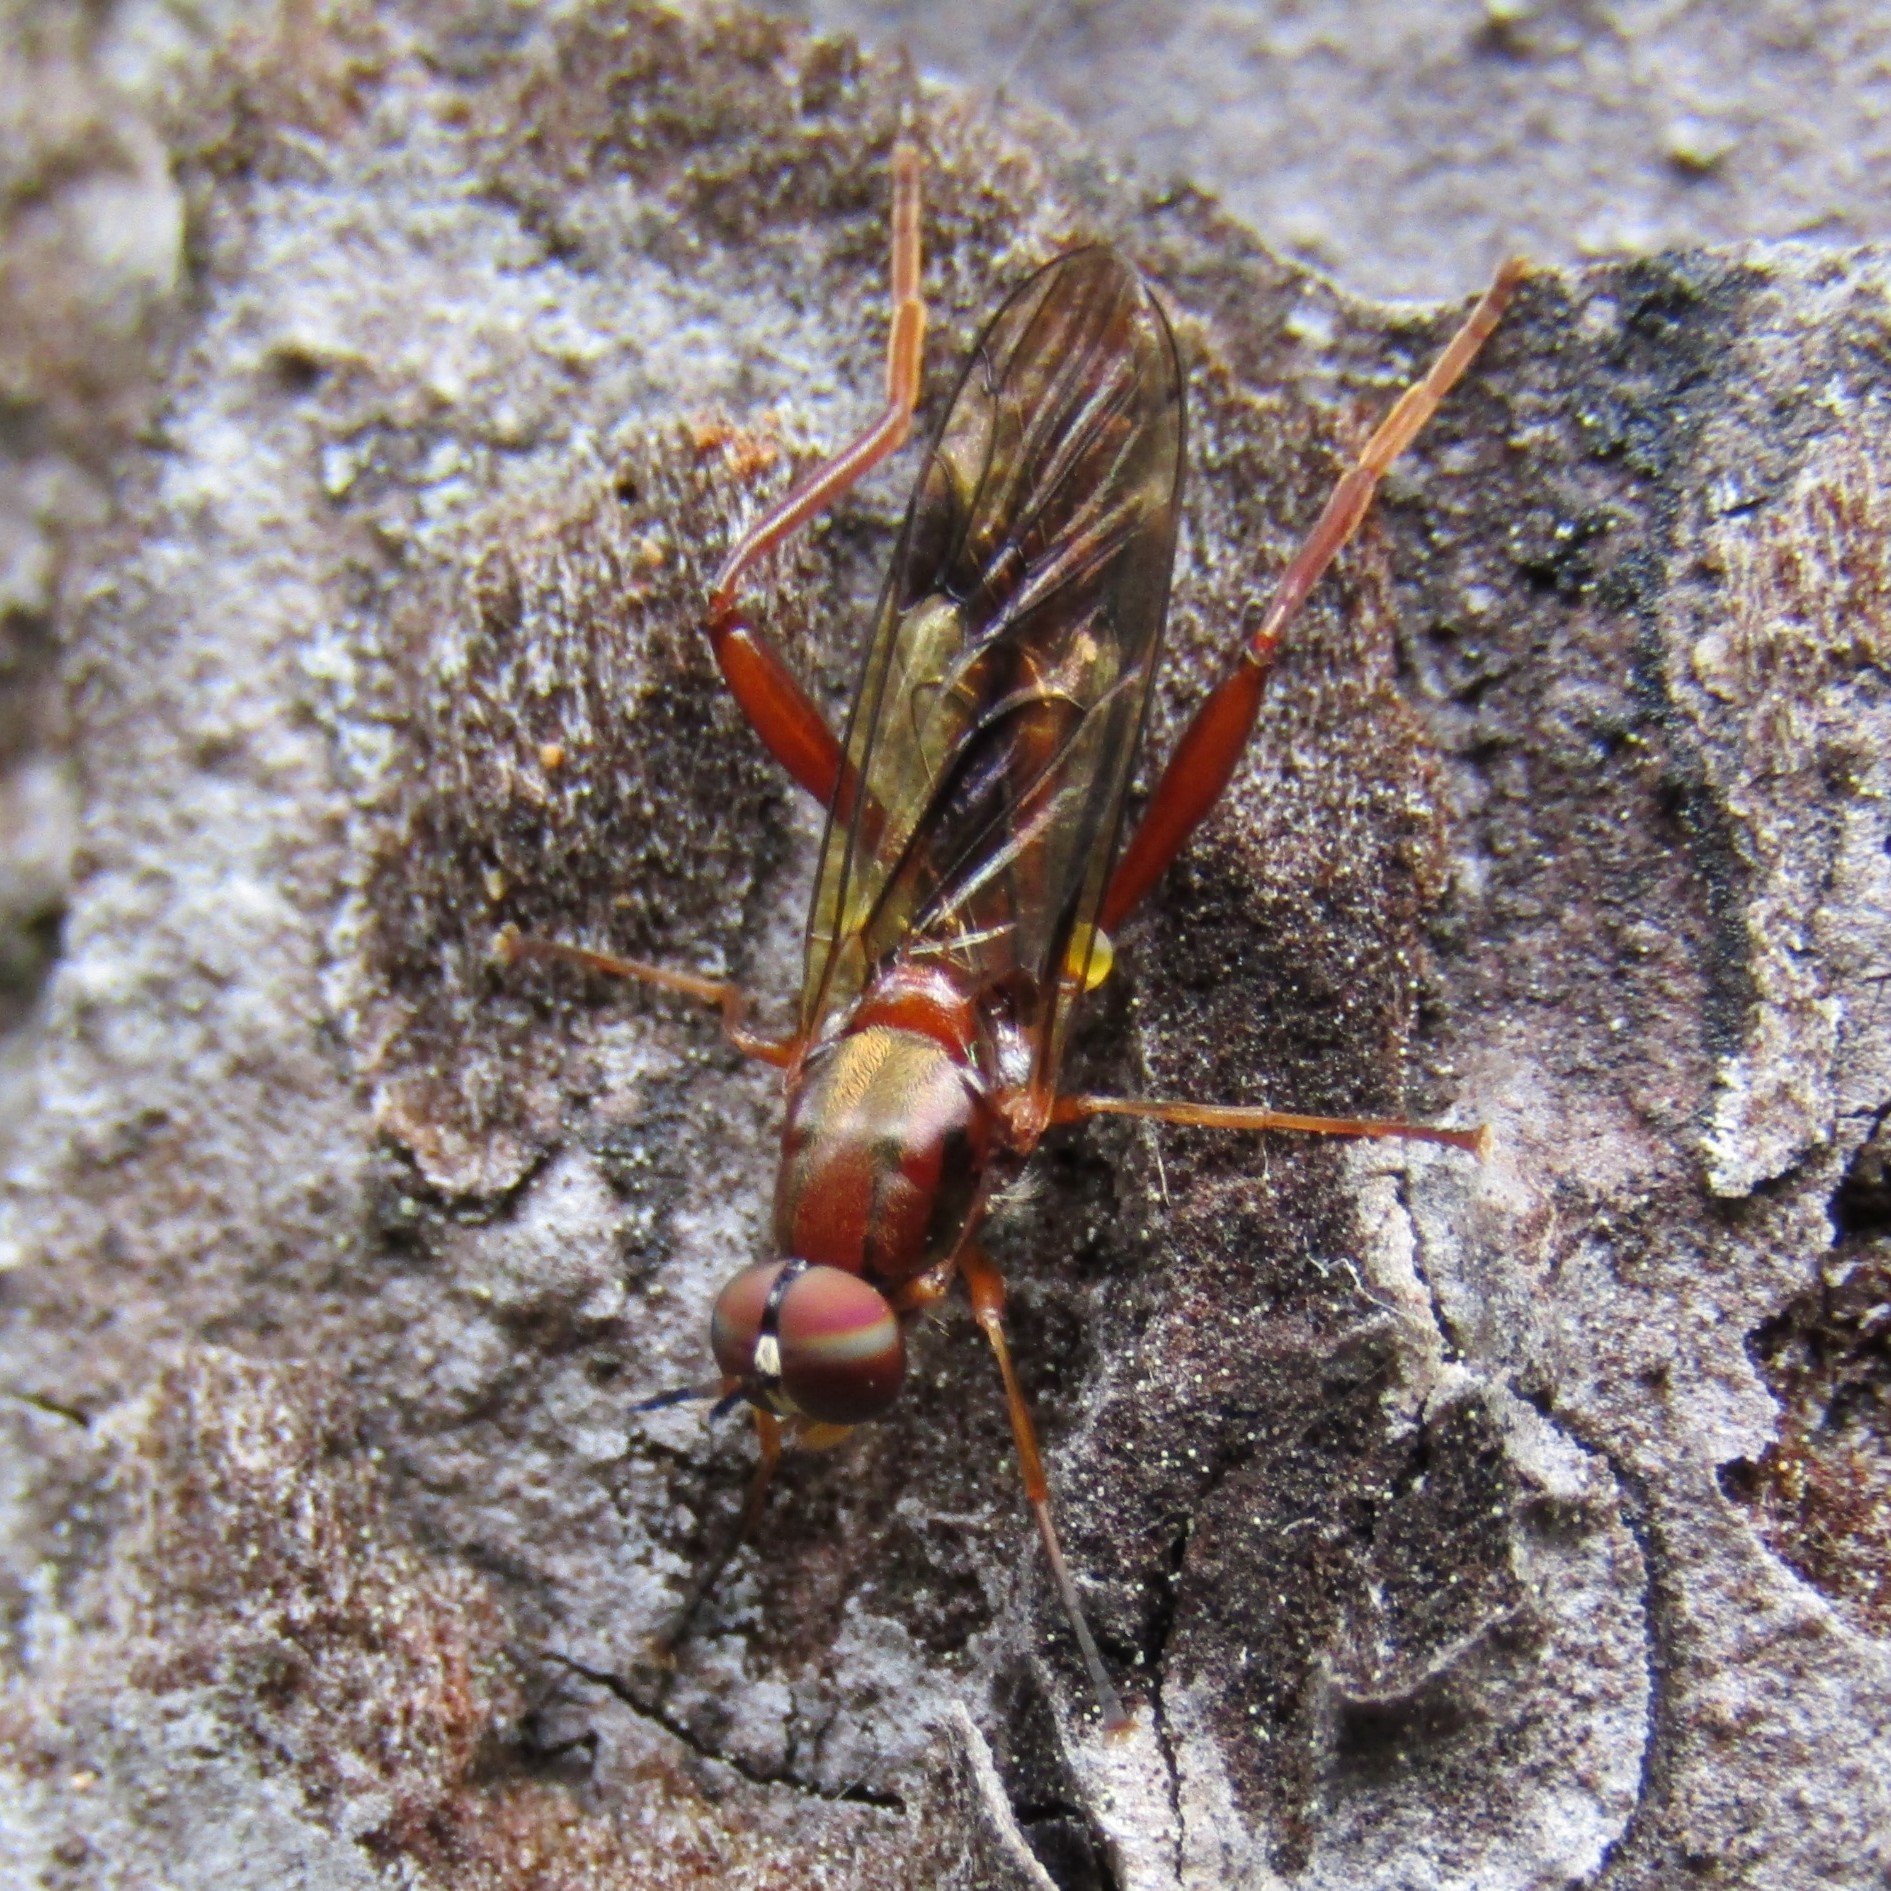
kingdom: Animalia
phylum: Arthropoda
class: Insecta
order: Diptera
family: Stratiomyidae
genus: Benhamyia
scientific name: Benhamyia straznitzkii
